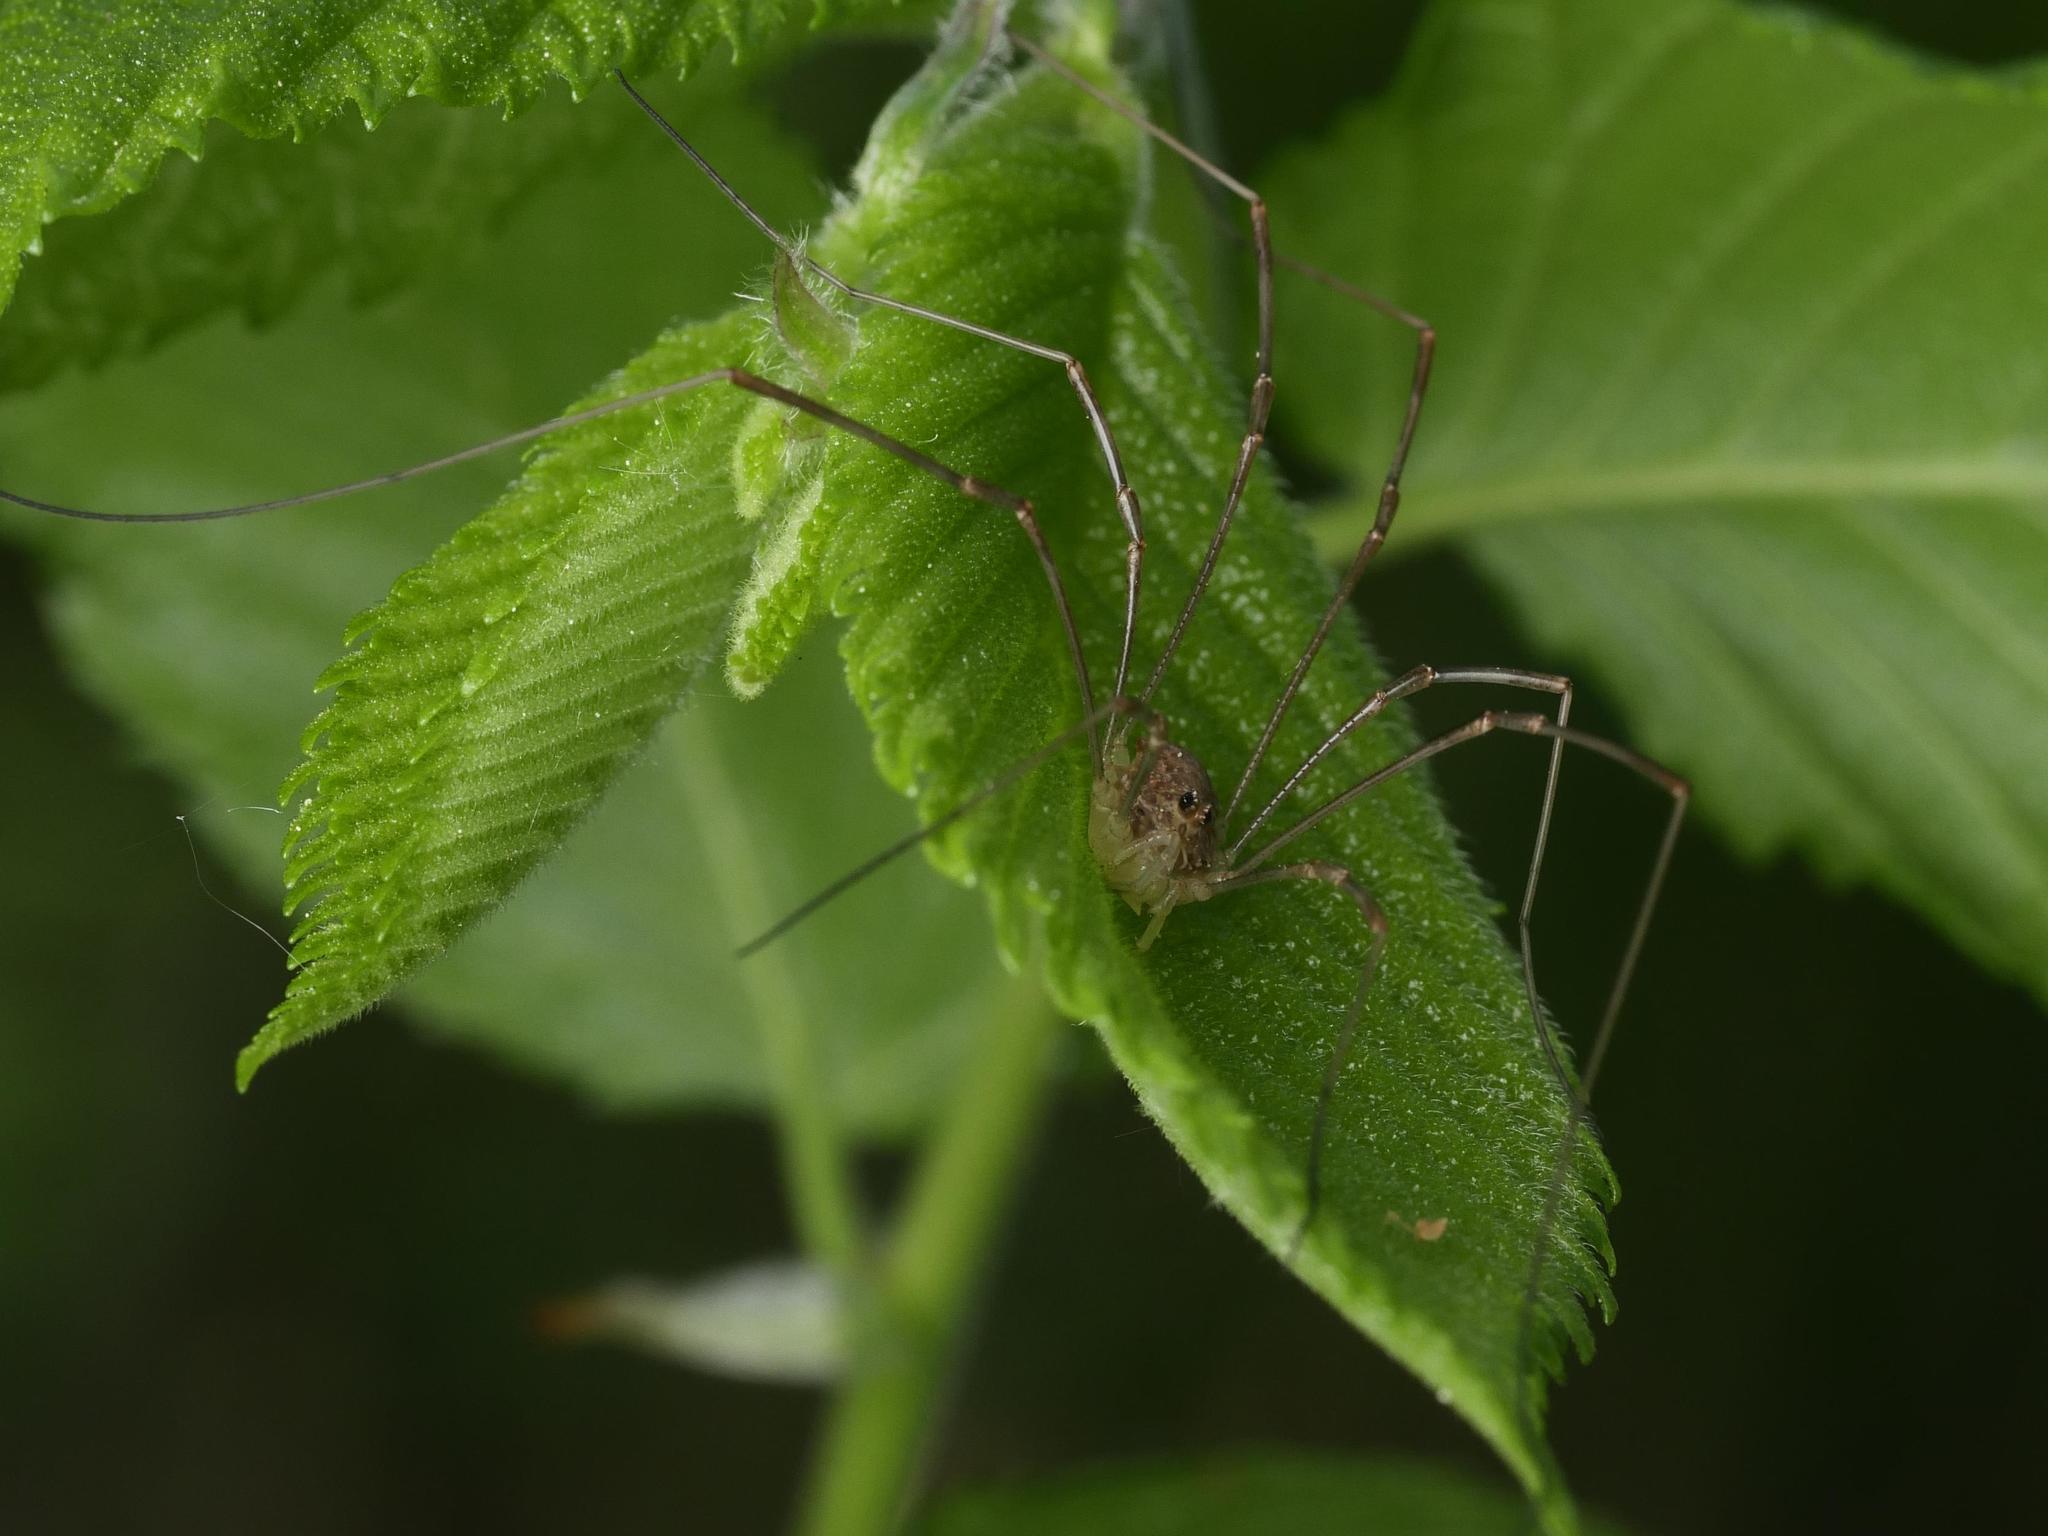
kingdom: Animalia
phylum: Arthropoda
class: Arachnida
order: Opiliones
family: Phalangiidae
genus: Rilaena
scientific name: Rilaena triangularis
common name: Spring harvestman
